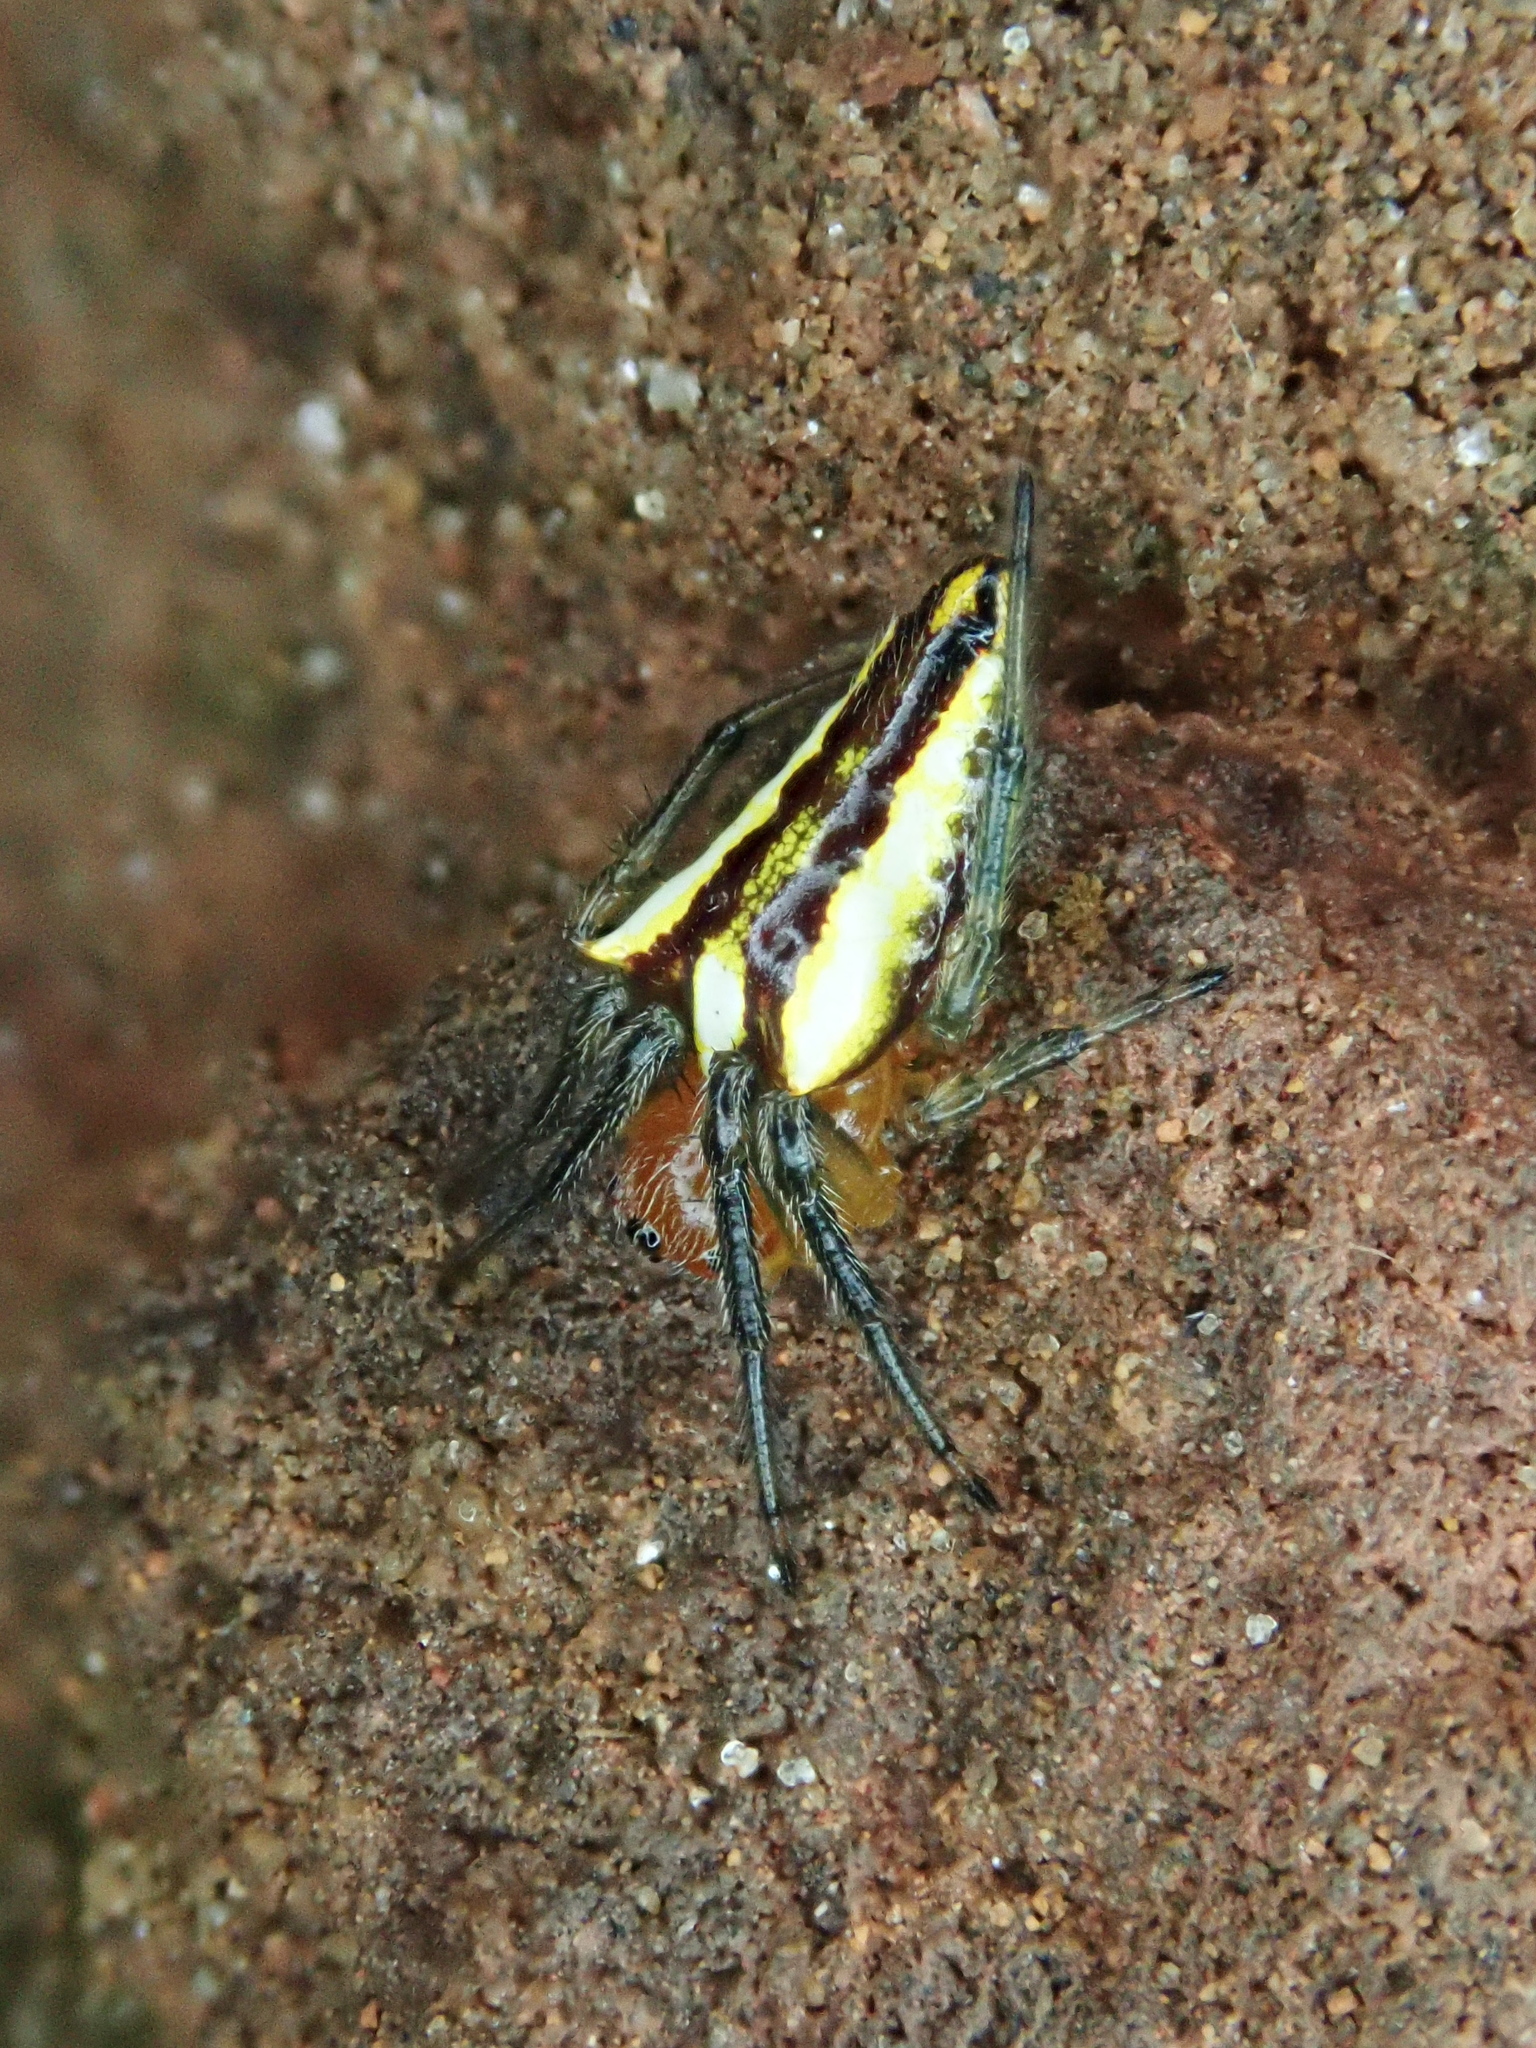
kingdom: Animalia
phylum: Arthropoda
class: Arachnida
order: Araneae
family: Araneidae
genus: Alpaida
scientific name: Alpaida bicornuta
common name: Orb weavers
